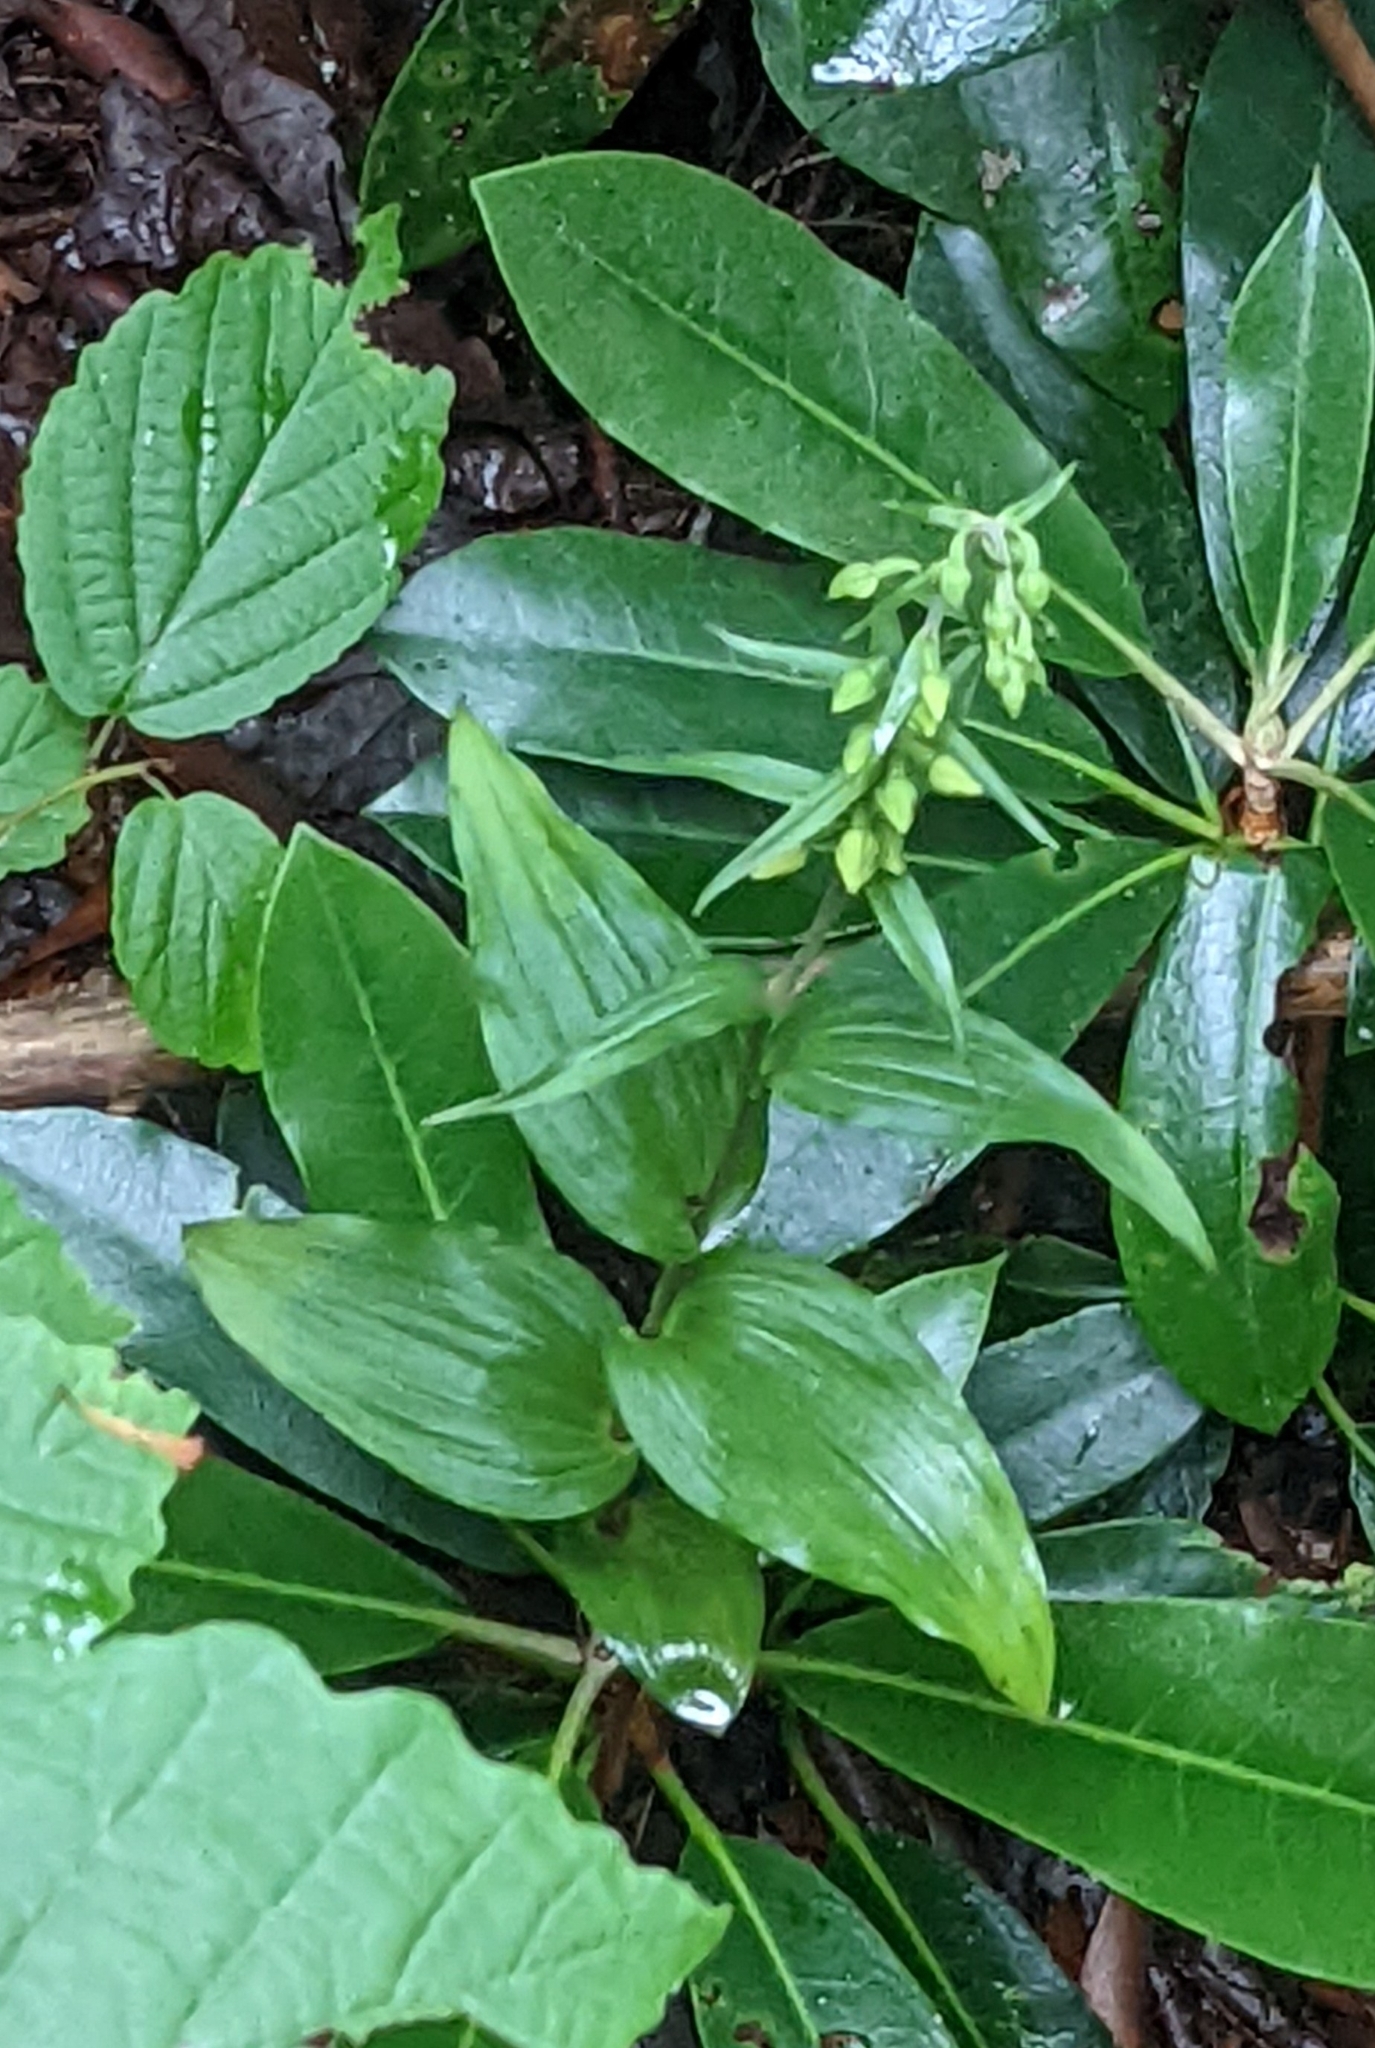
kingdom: Plantae
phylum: Tracheophyta
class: Liliopsida
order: Asparagales
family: Orchidaceae
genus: Epipactis
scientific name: Epipactis helleborine
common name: Broad-leaved helleborine
